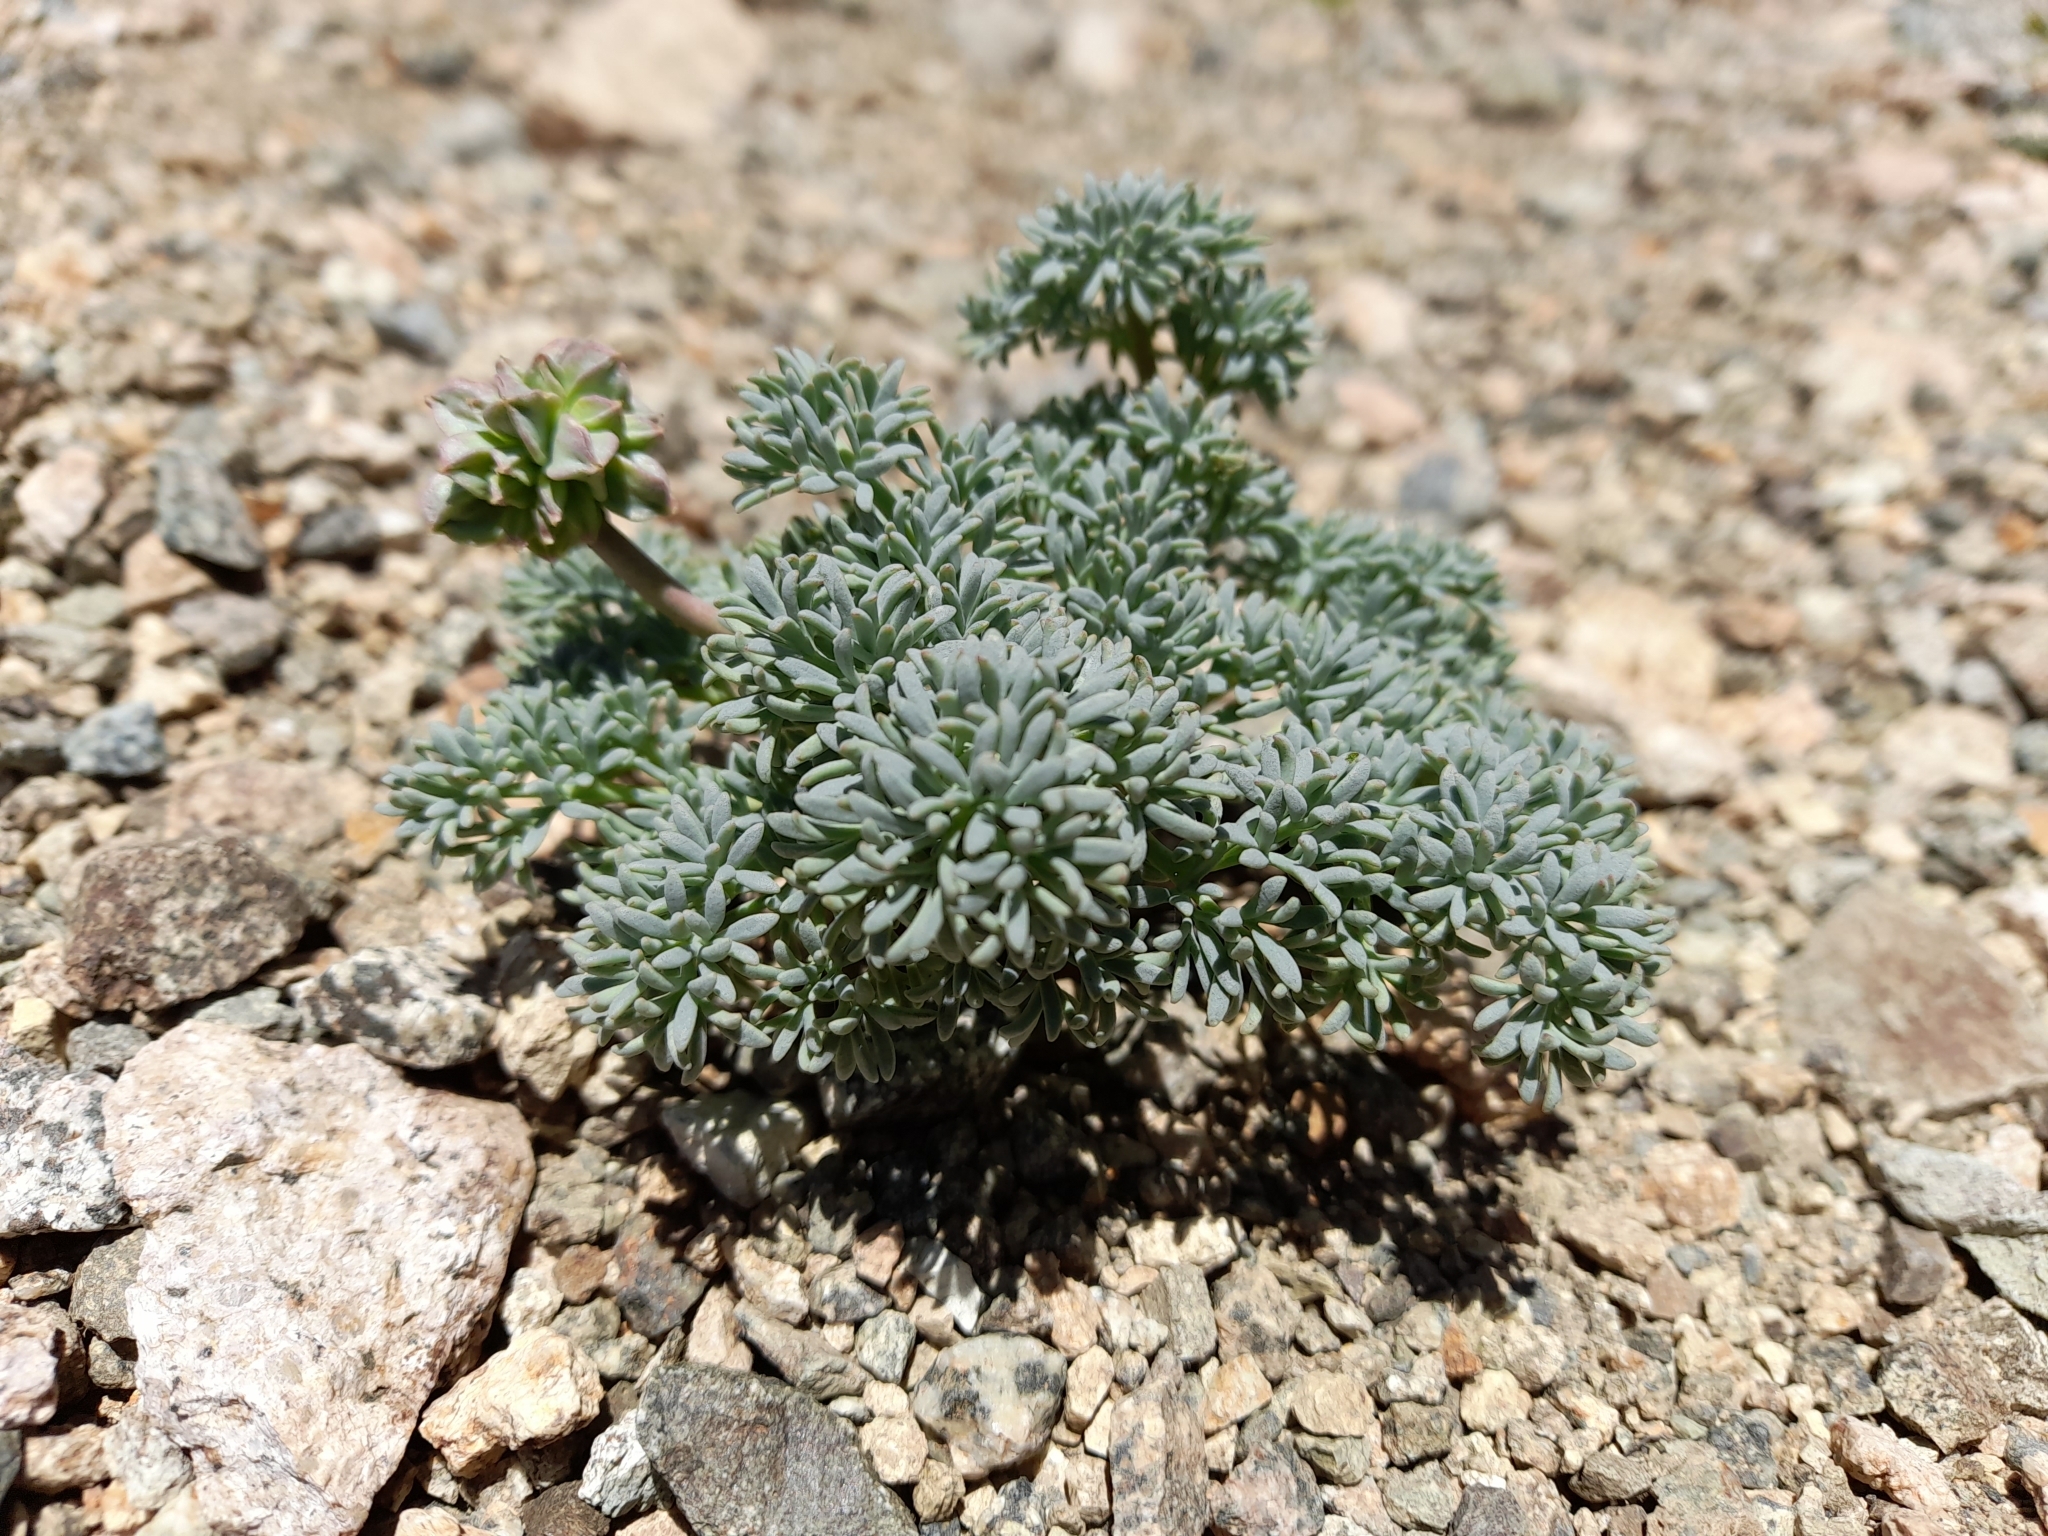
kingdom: Plantae
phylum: Tracheophyta
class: Magnoliopsida
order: Ranunculales
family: Ranunculaceae
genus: Callianthemoides
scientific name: Callianthemoides semiverticillatus
